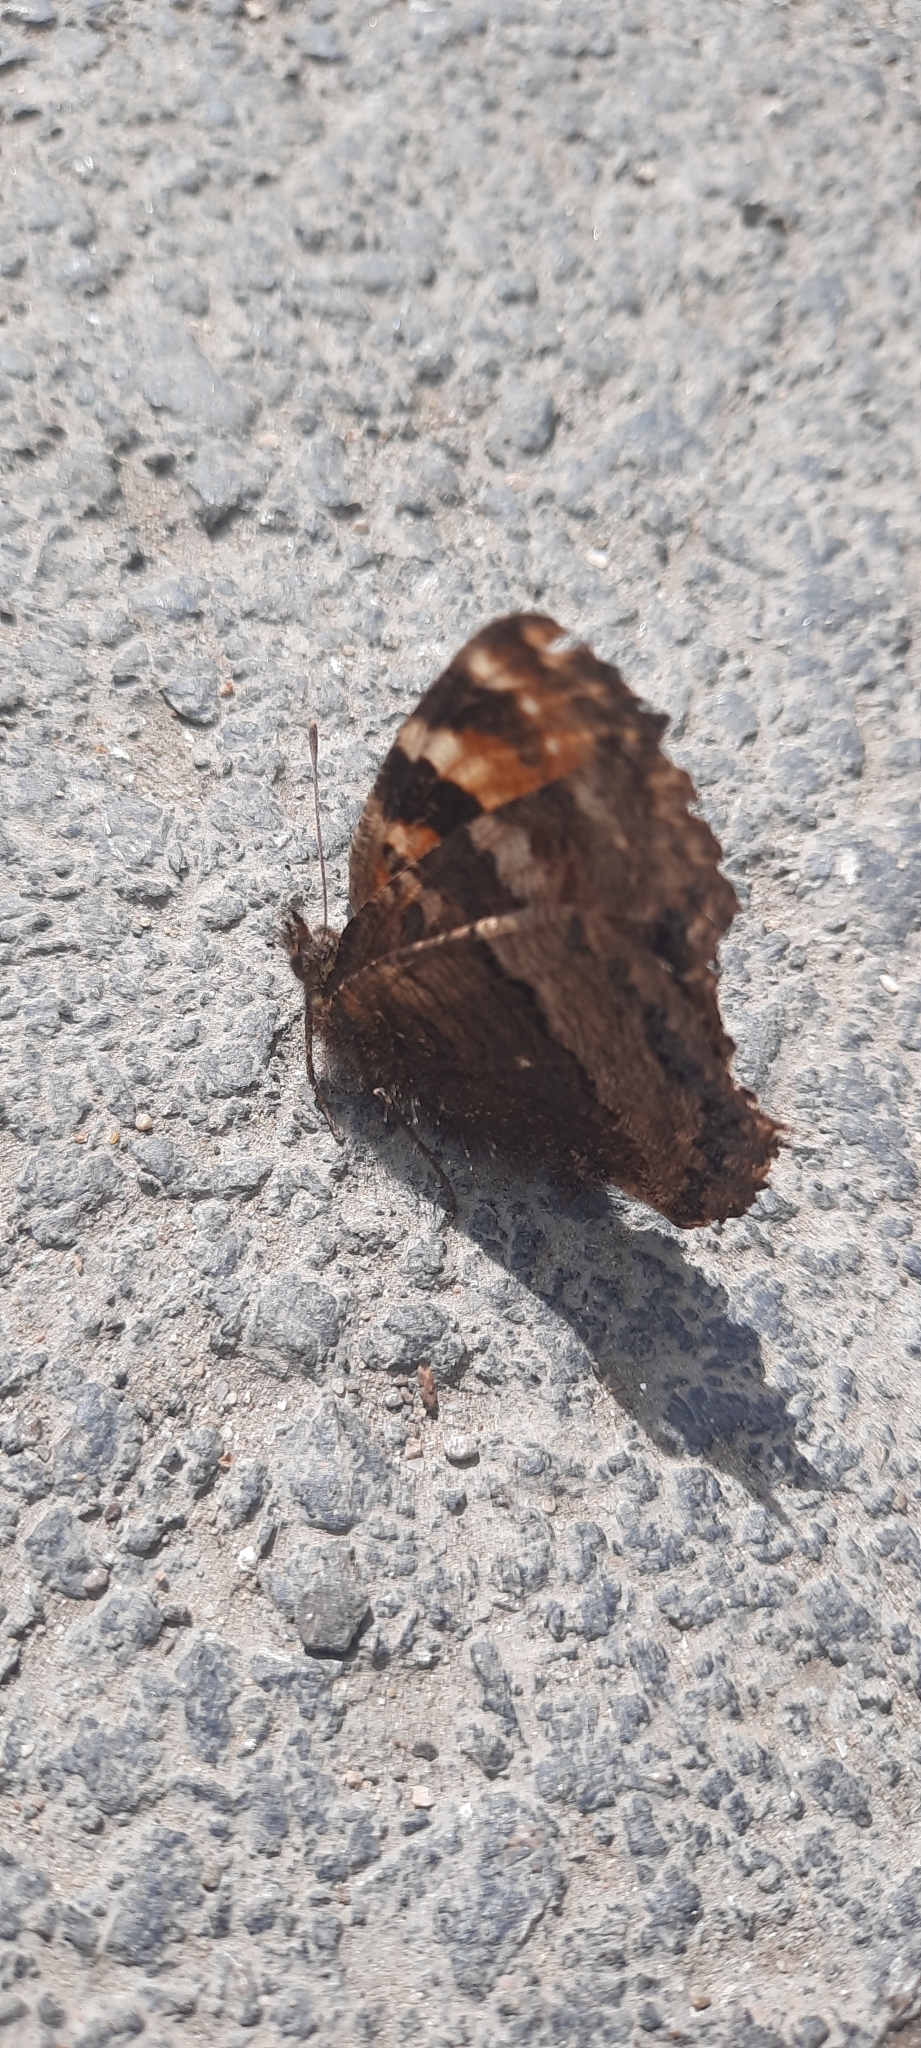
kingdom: Animalia
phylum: Arthropoda
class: Insecta
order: Lepidoptera
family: Nymphalidae
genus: Nymphalis
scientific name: Nymphalis polychloros
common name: Large tortoiseshell
